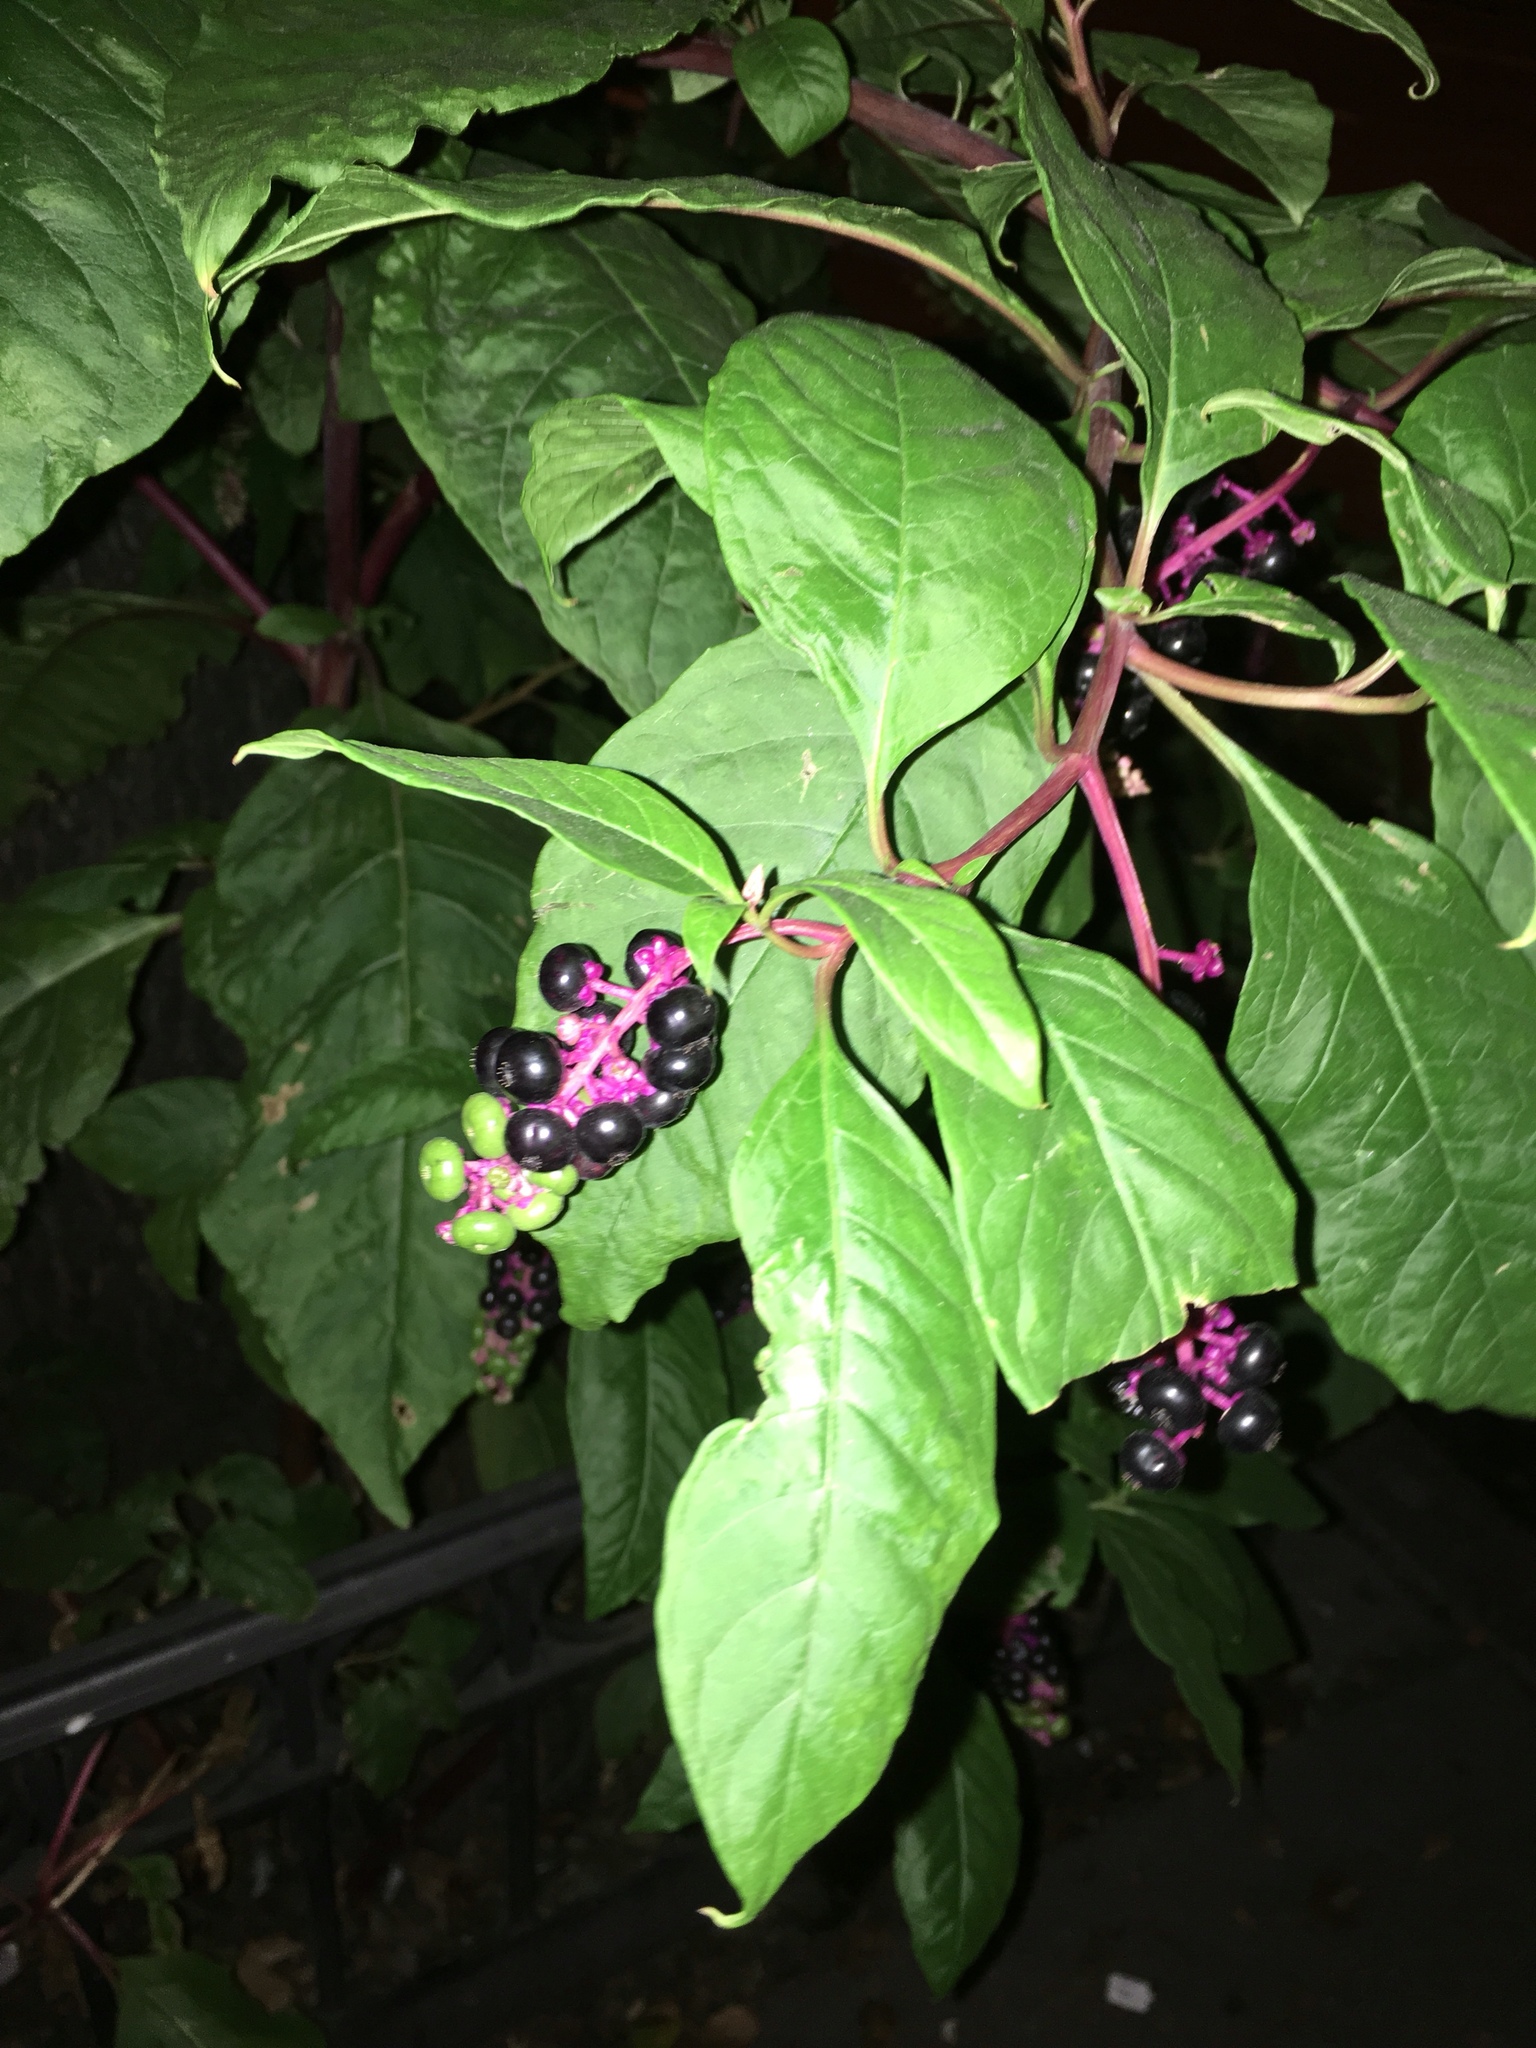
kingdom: Plantae
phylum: Tracheophyta
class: Magnoliopsida
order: Caryophyllales
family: Phytolaccaceae
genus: Phytolacca
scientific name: Phytolacca americana
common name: American pokeweed
